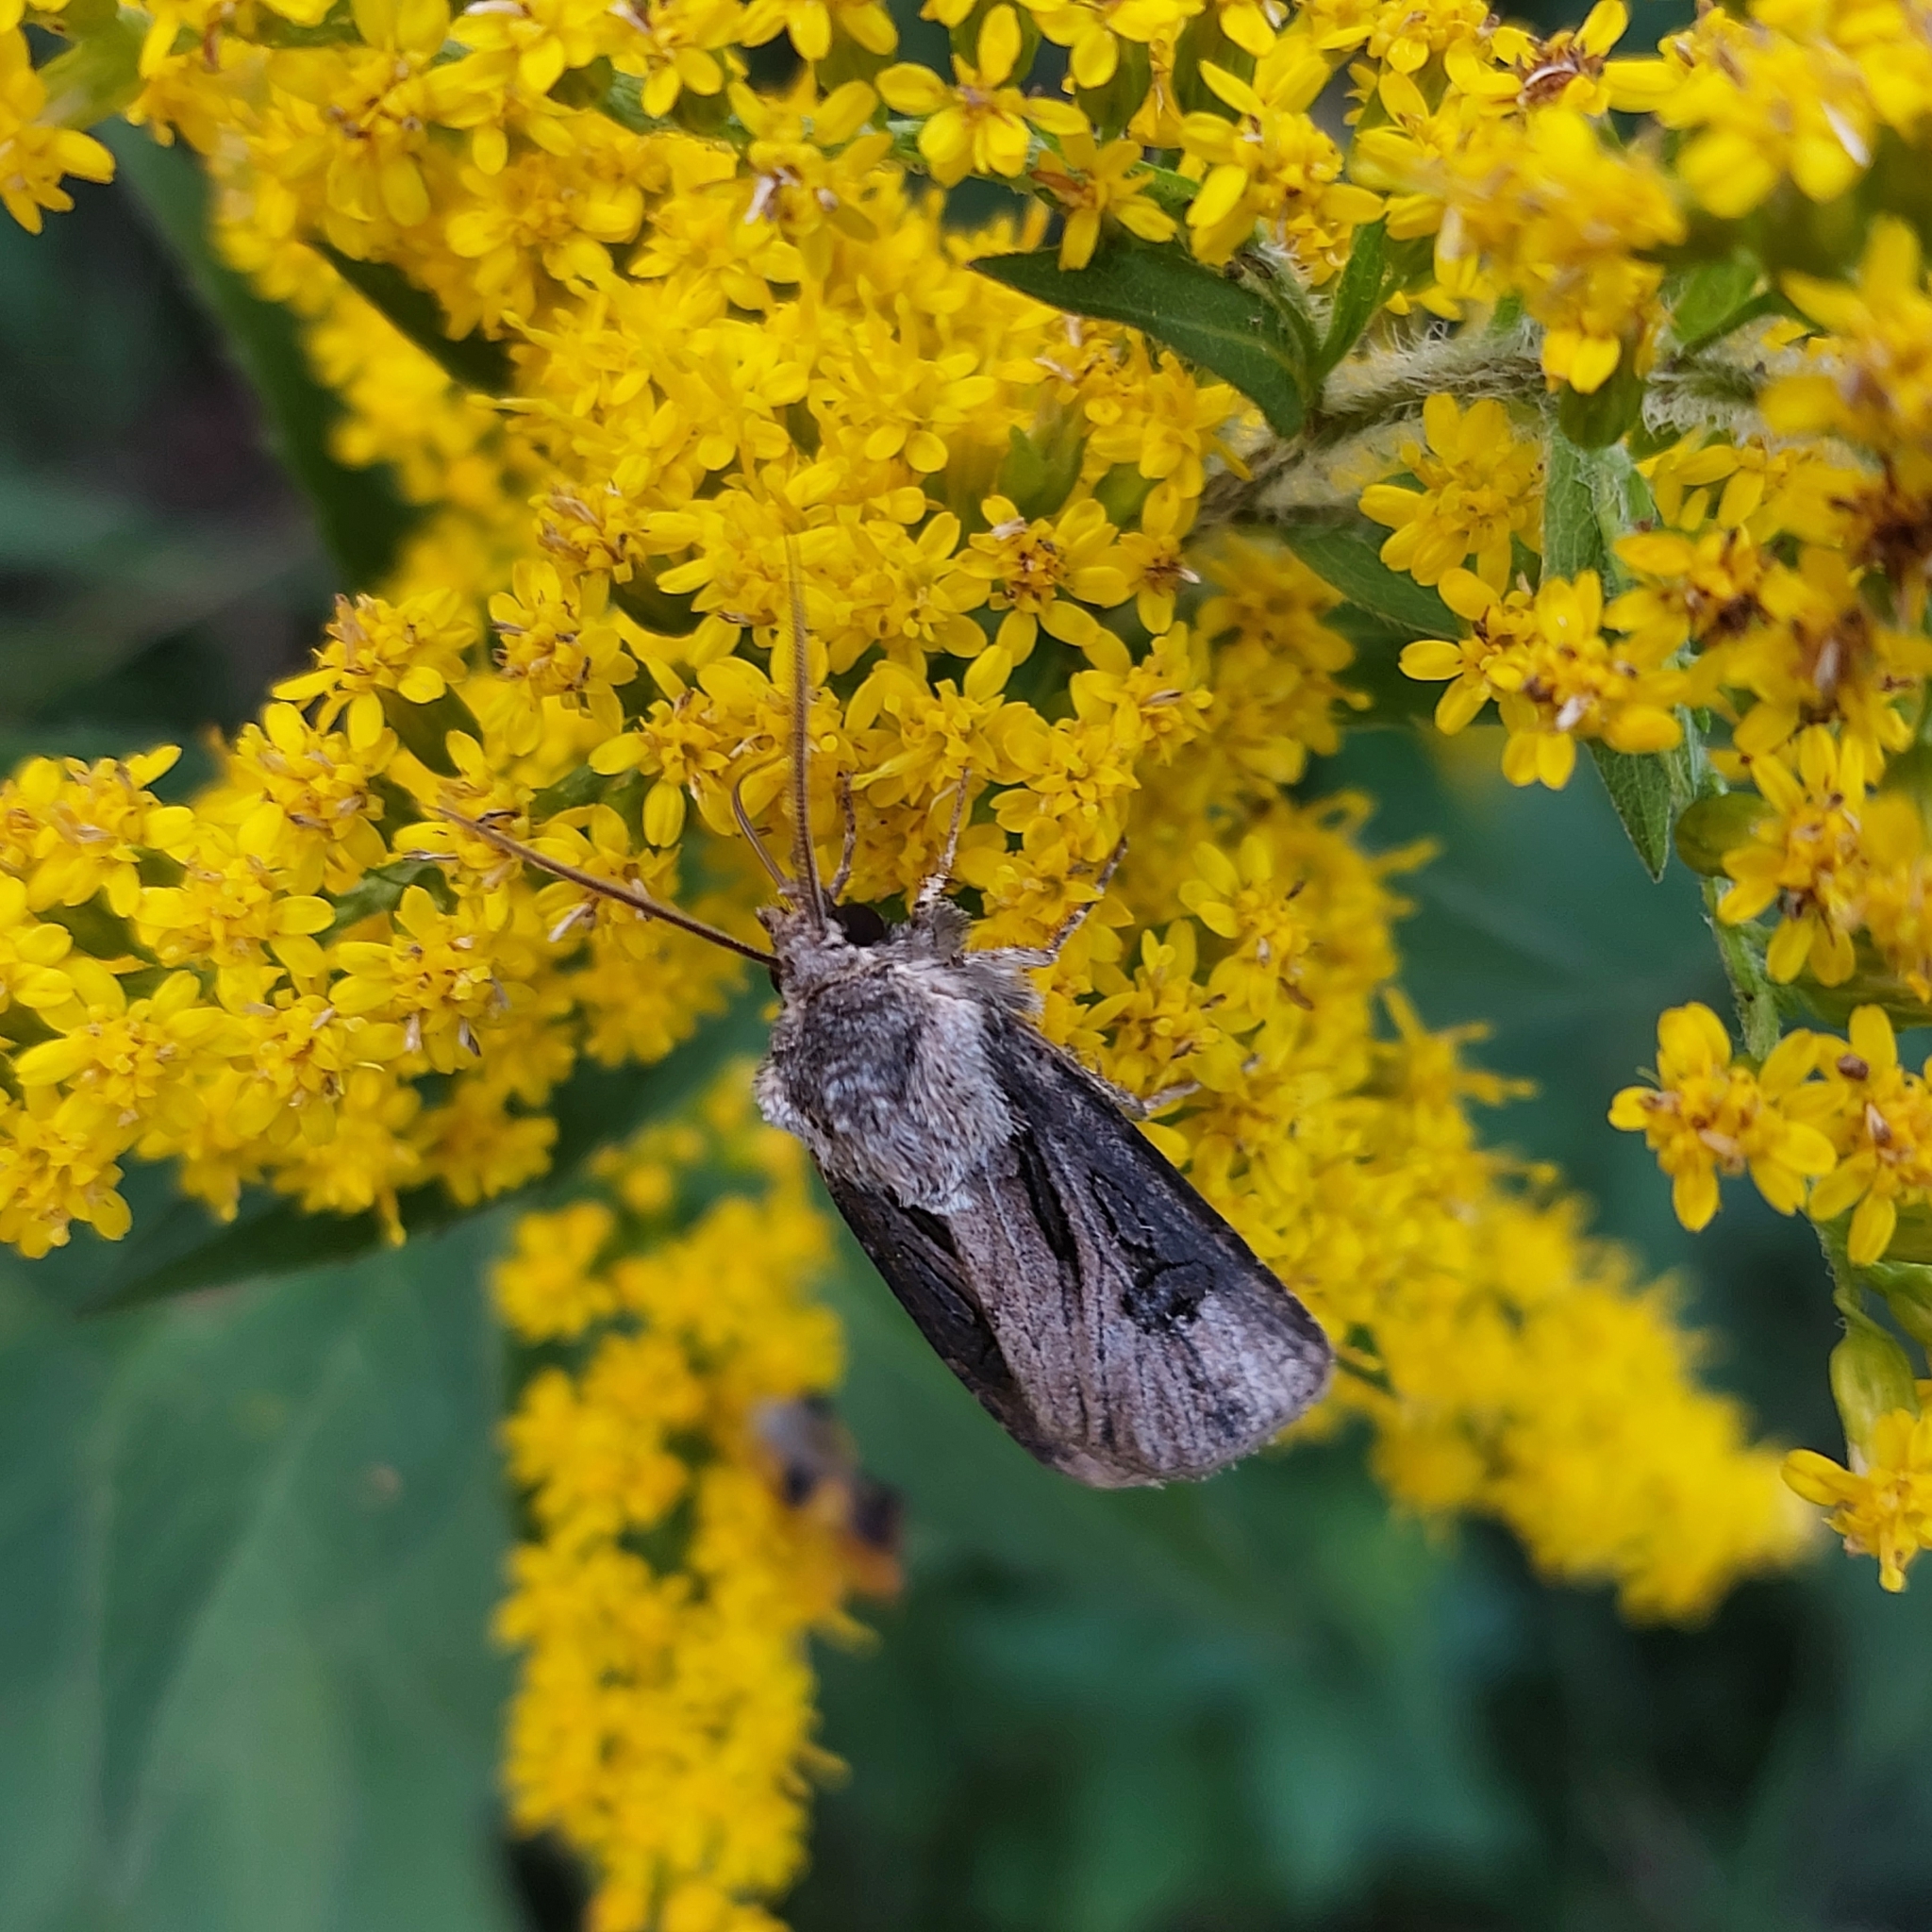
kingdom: Animalia
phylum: Arthropoda
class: Insecta
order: Lepidoptera
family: Noctuidae
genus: Agrotis
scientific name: Agrotis venerabilis
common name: Venerable dart
